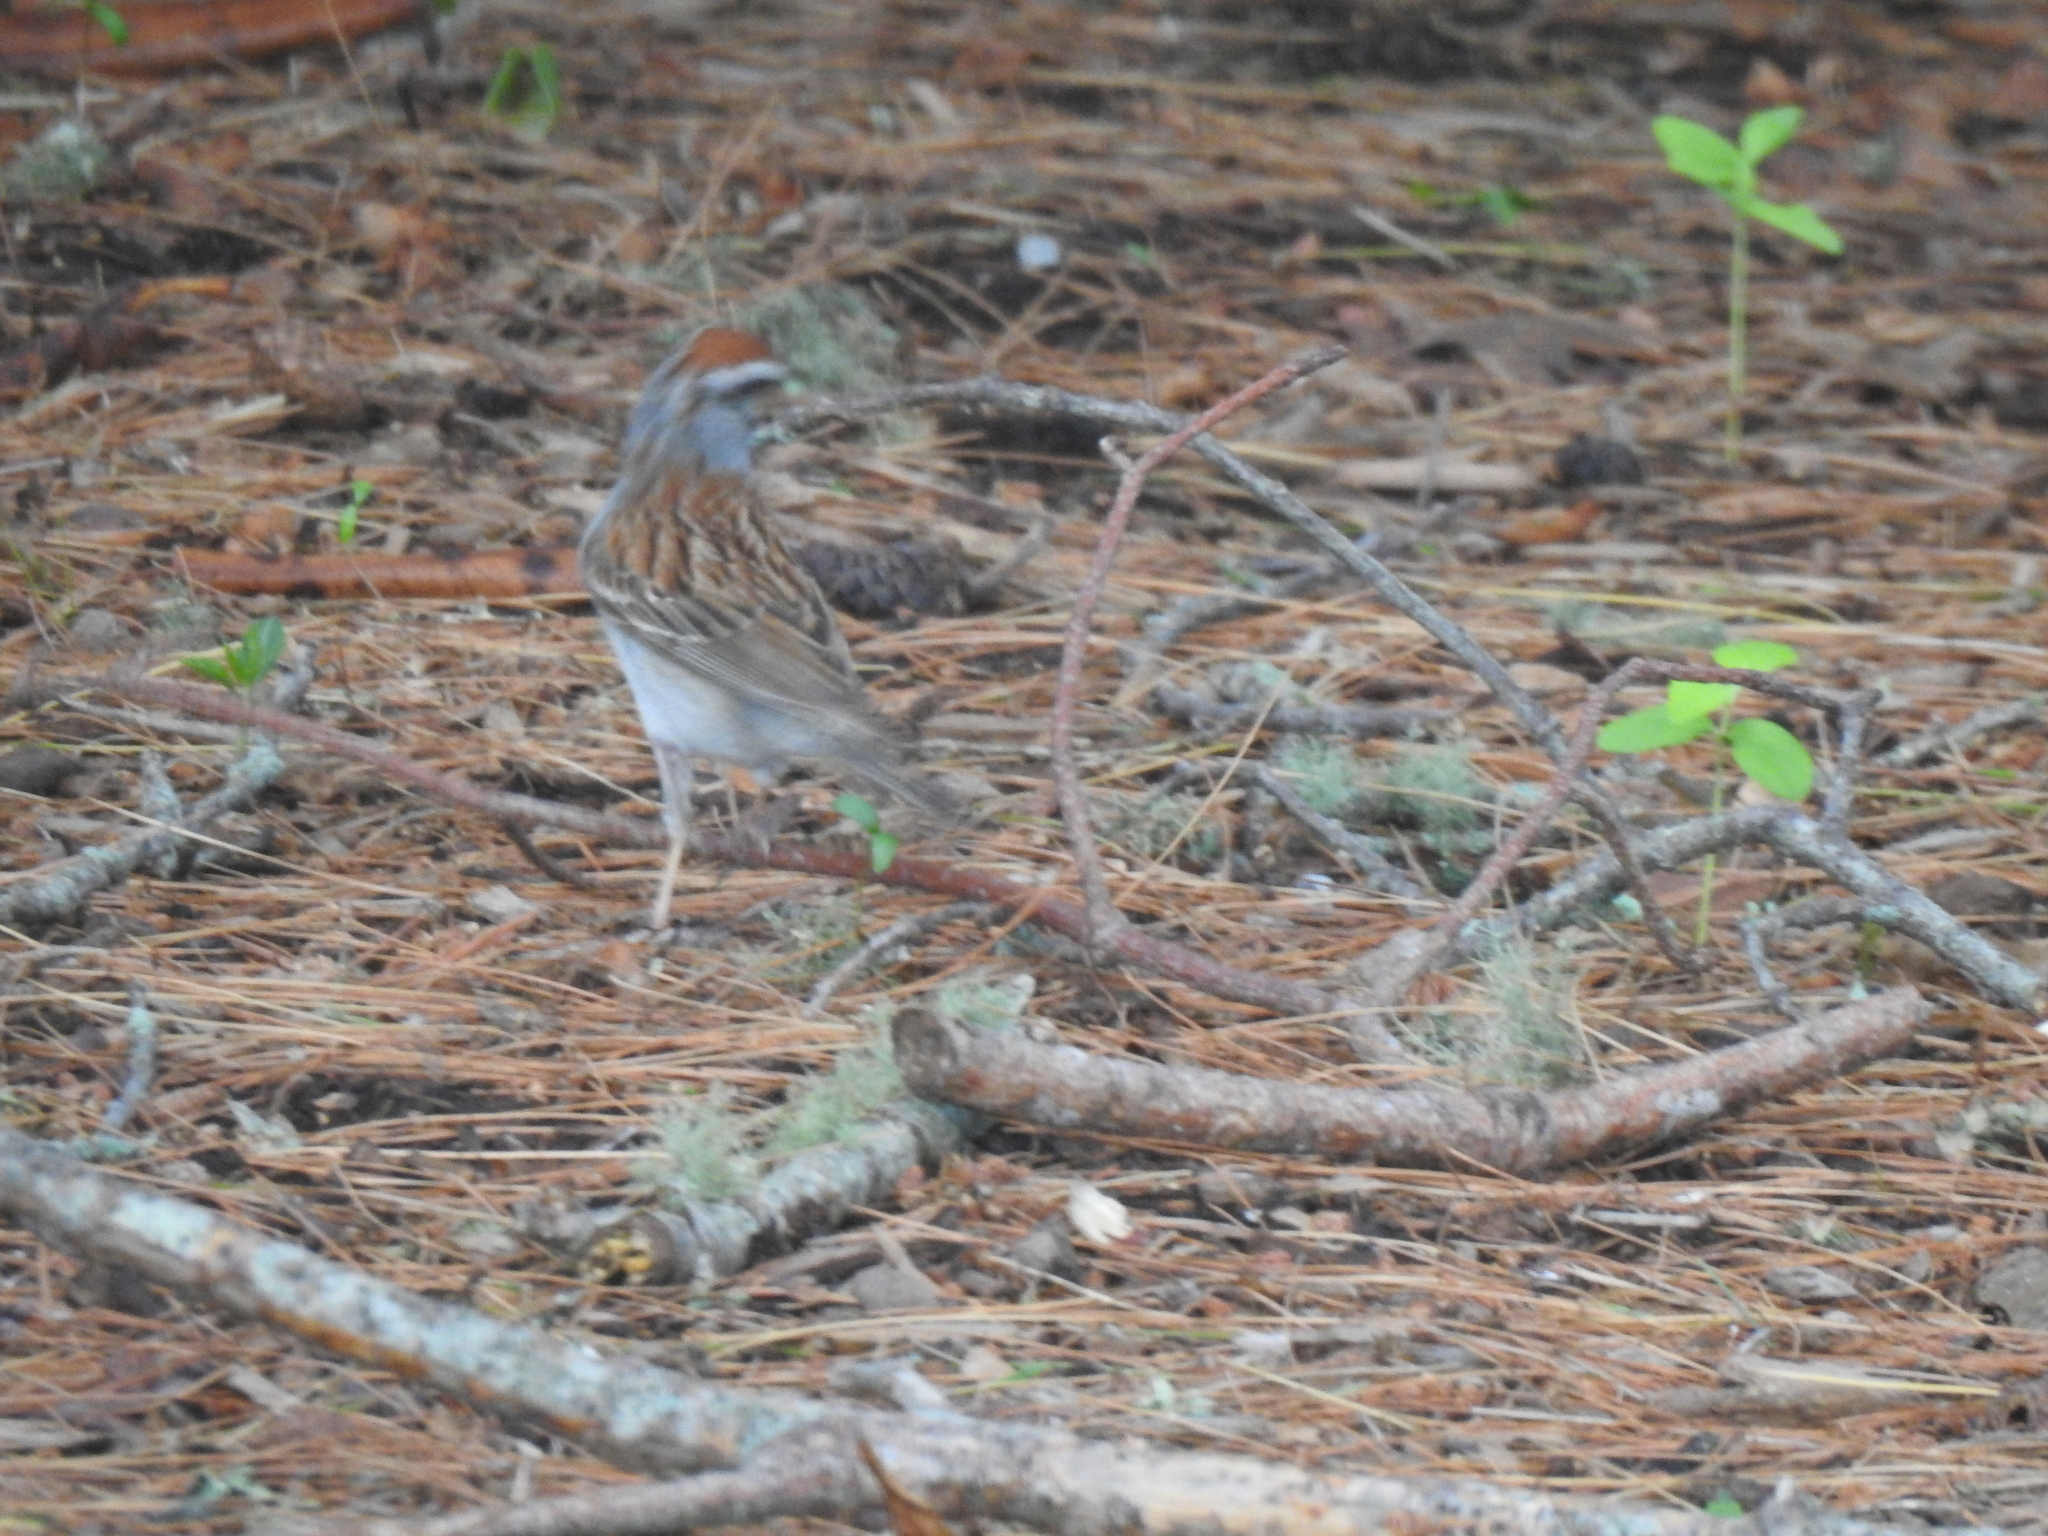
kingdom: Animalia
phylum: Chordata
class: Aves
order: Passeriformes
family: Passerellidae
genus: Spizella
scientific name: Spizella passerina
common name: Chipping sparrow
